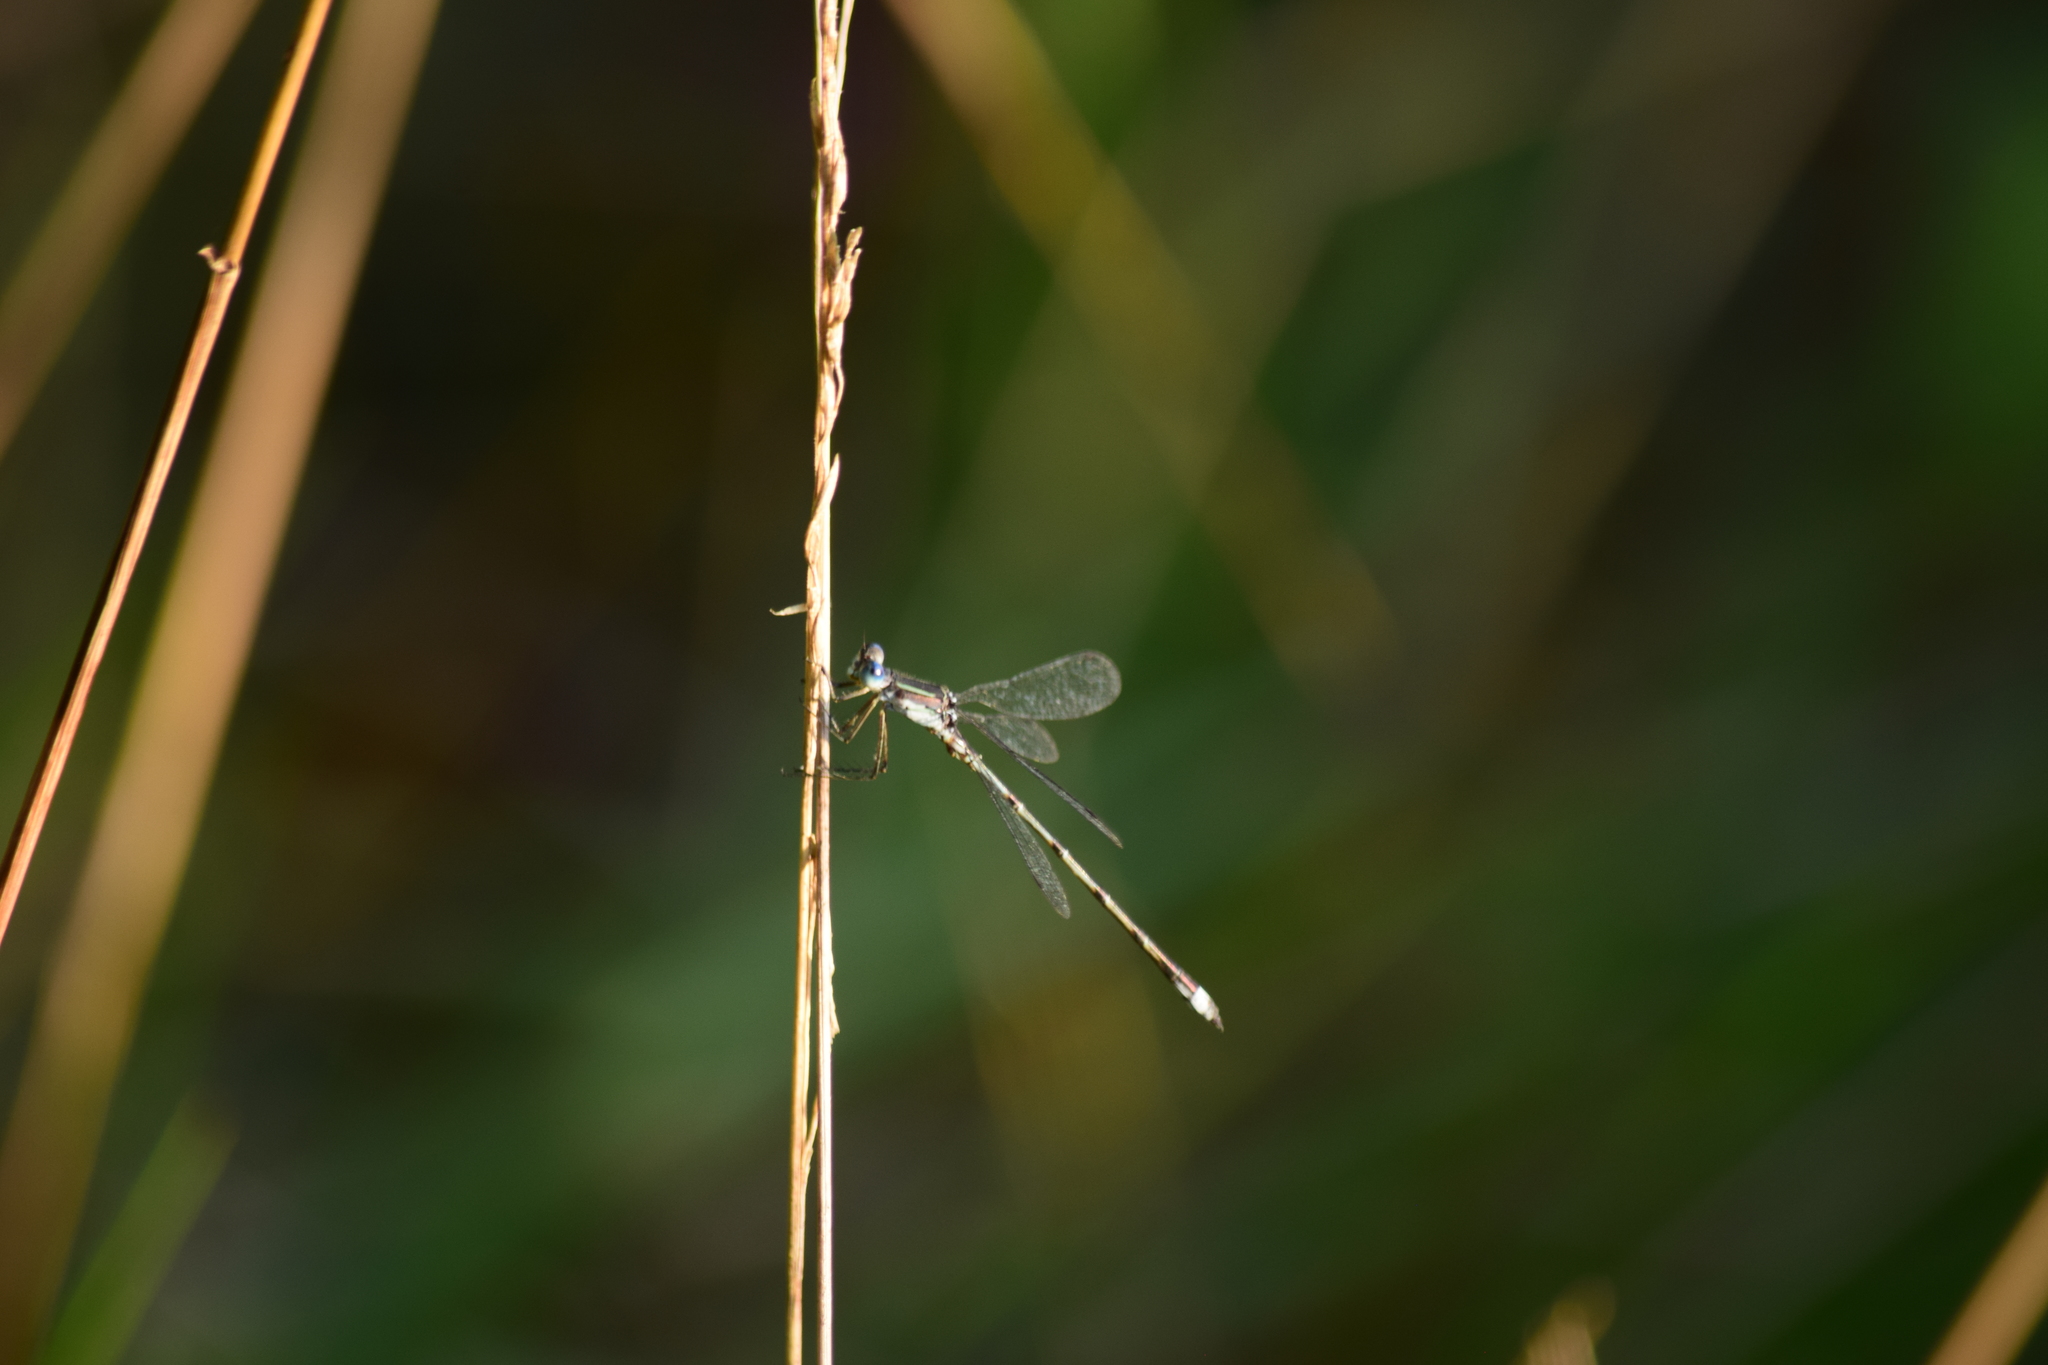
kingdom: Animalia
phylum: Arthropoda
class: Insecta
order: Odonata
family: Lestidae
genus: Lestes
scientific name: Lestes
